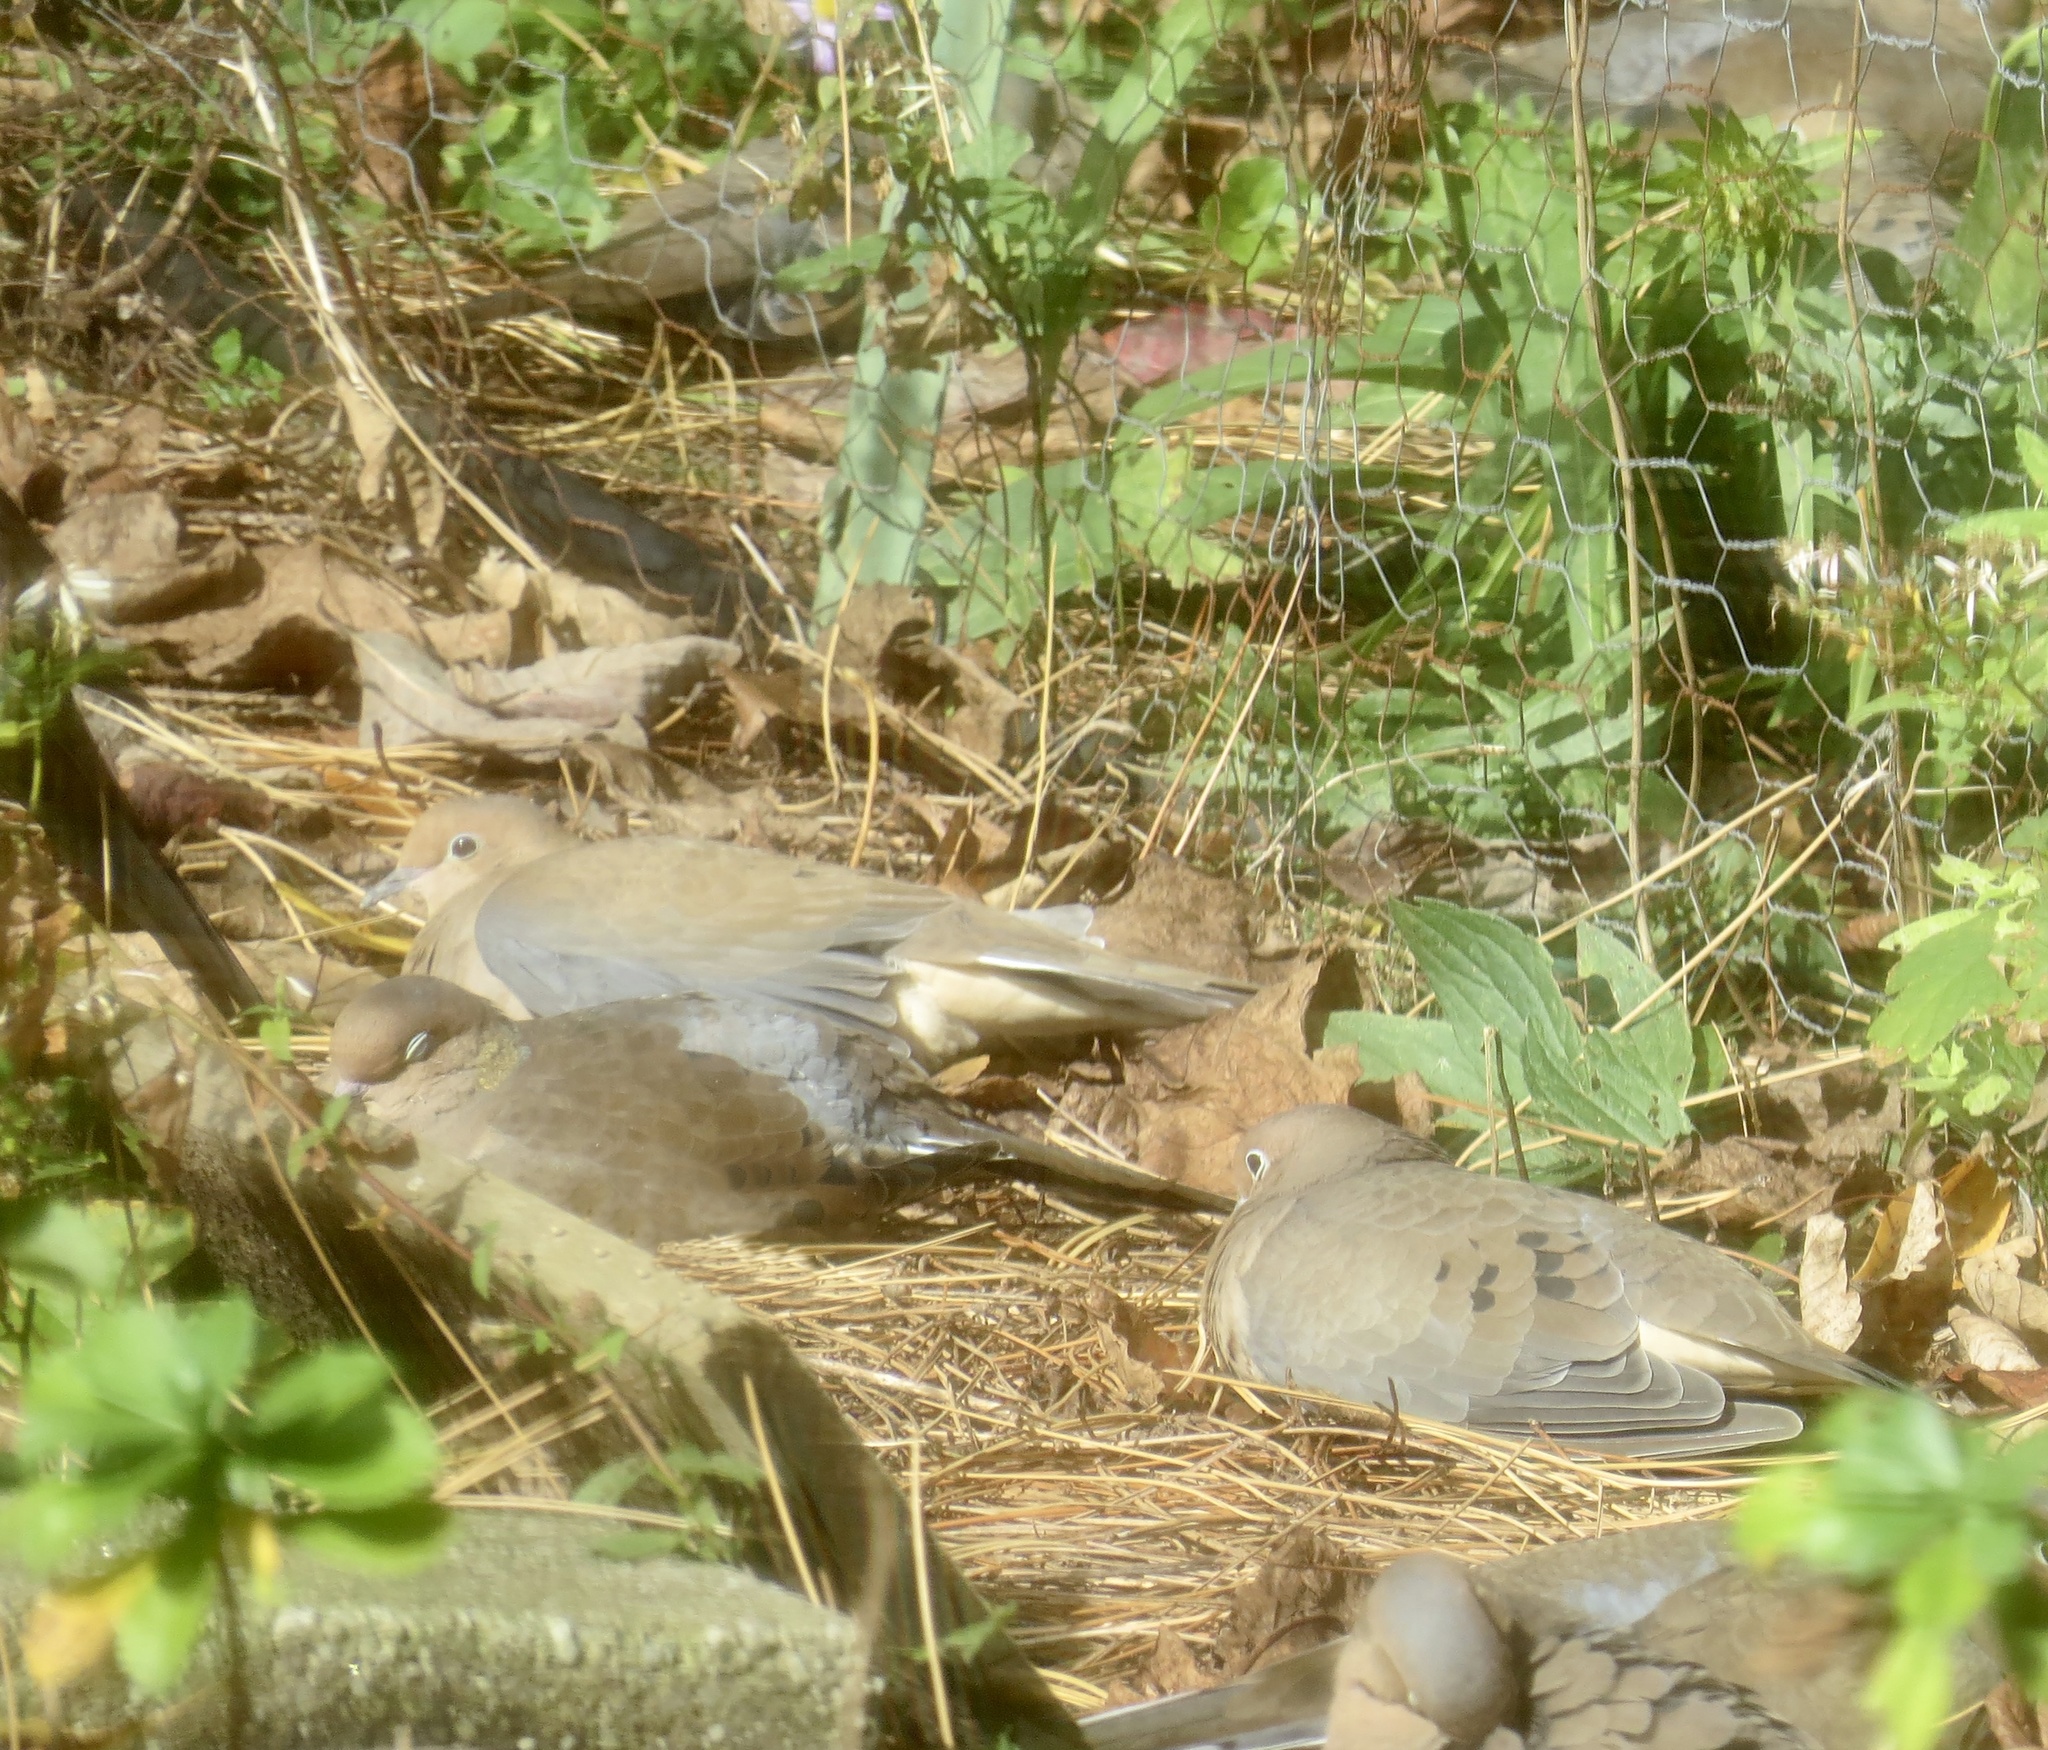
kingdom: Animalia
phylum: Chordata
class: Aves
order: Columbiformes
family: Columbidae
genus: Zenaida
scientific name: Zenaida macroura
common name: Mourning dove
